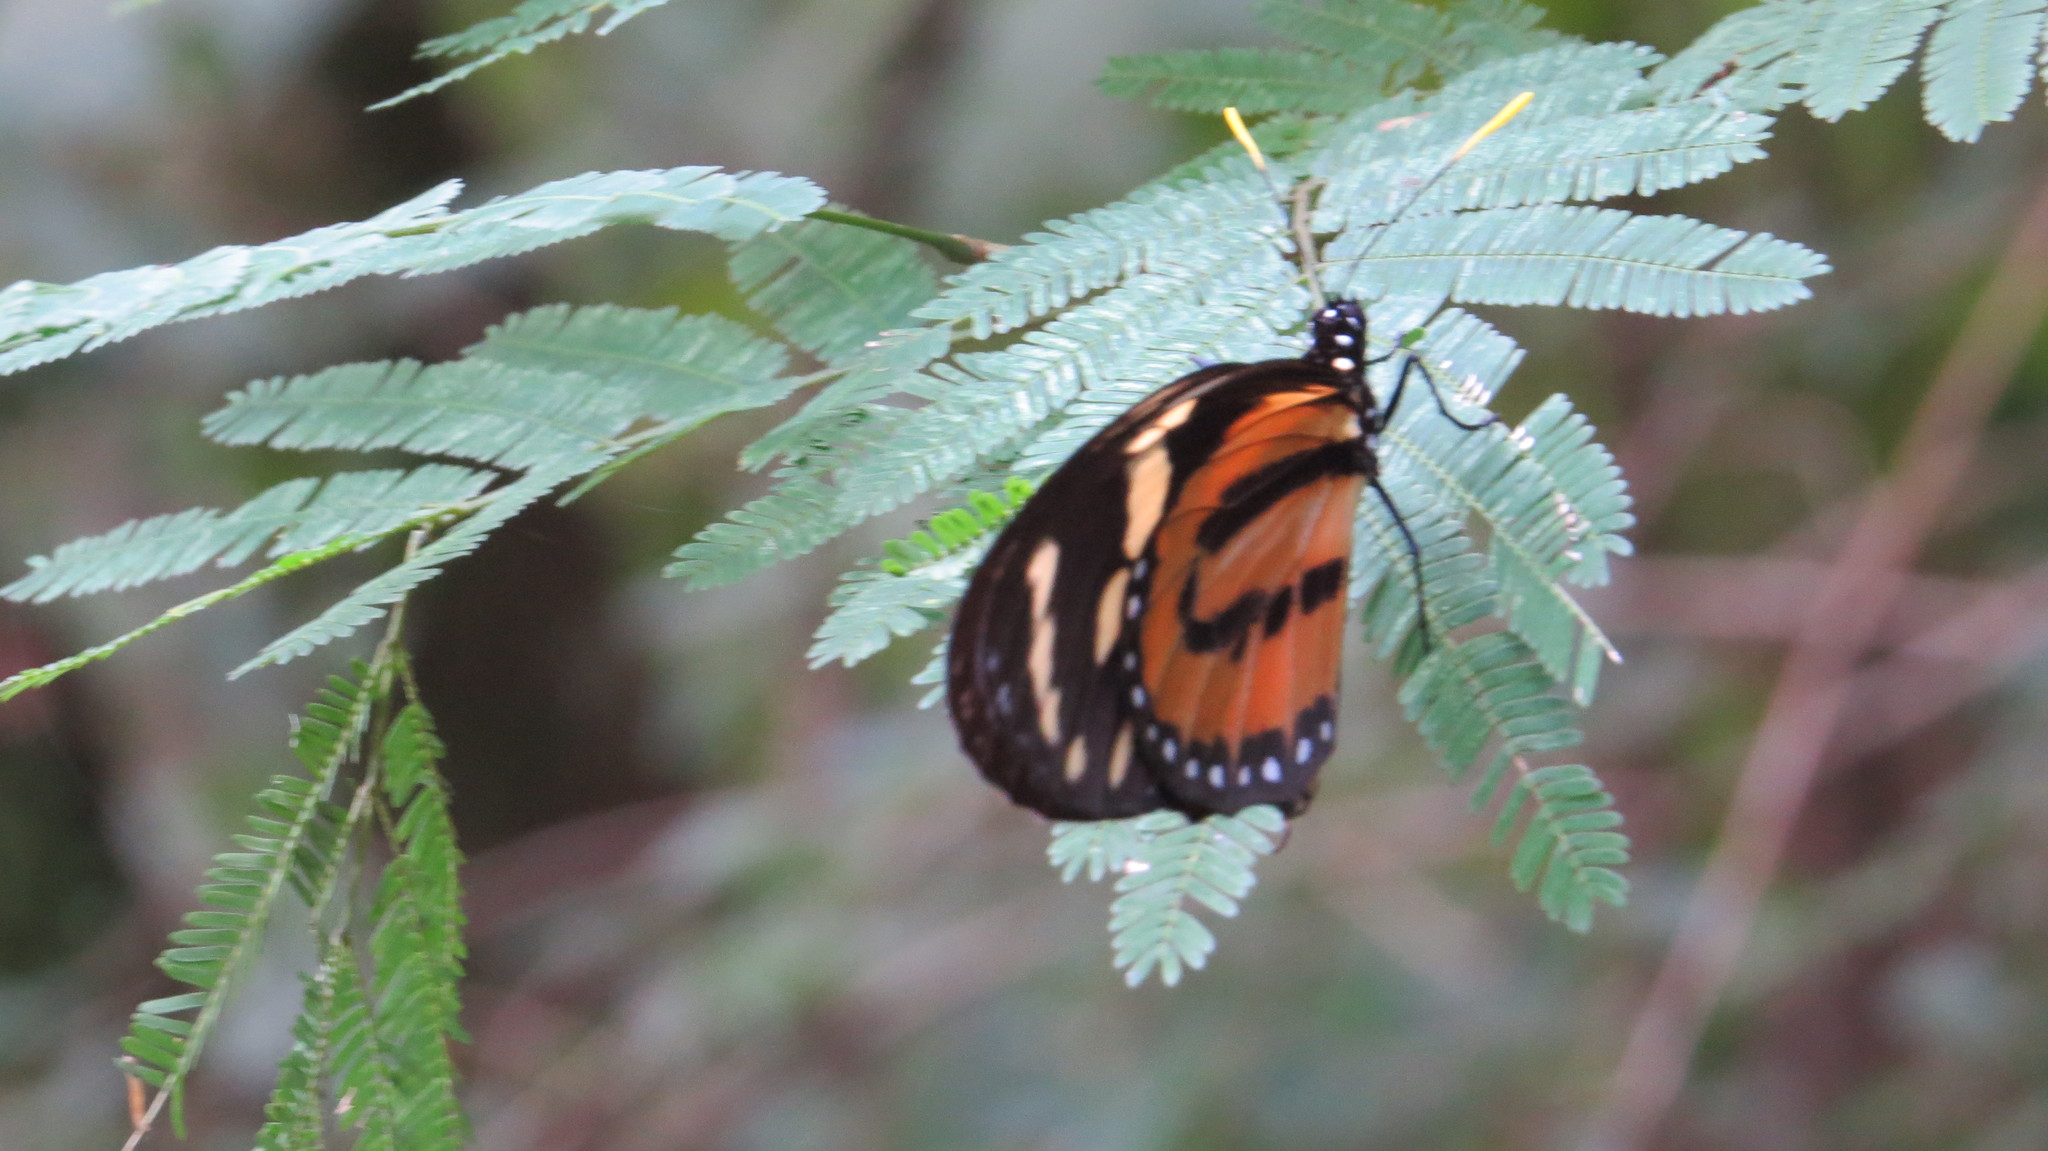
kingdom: Animalia
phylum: Arthropoda
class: Insecta
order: Lepidoptera
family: Nymphalidae
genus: Lycorea
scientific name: Lycorea cleobaea
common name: Tiger mimic-queen
